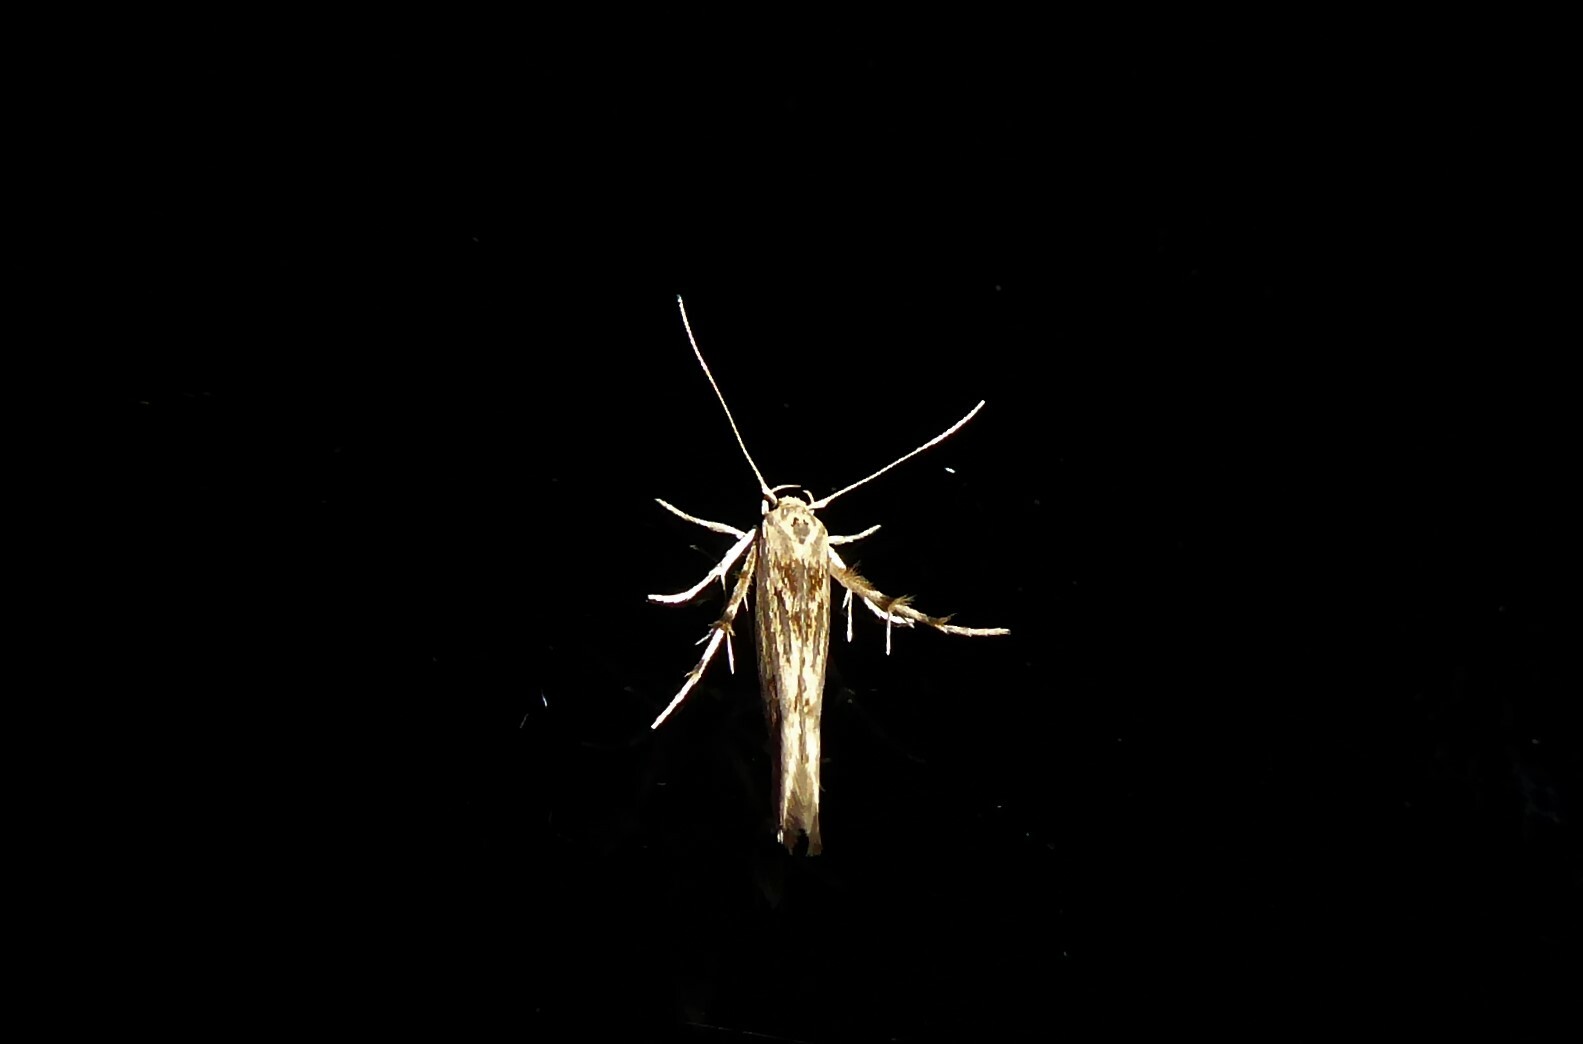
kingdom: Animalia
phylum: Arthropoda
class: Insecta
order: Lepidoptera
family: Stathmopodidae
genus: Stathmopoda
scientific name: Stathmopoda plumbiflua
